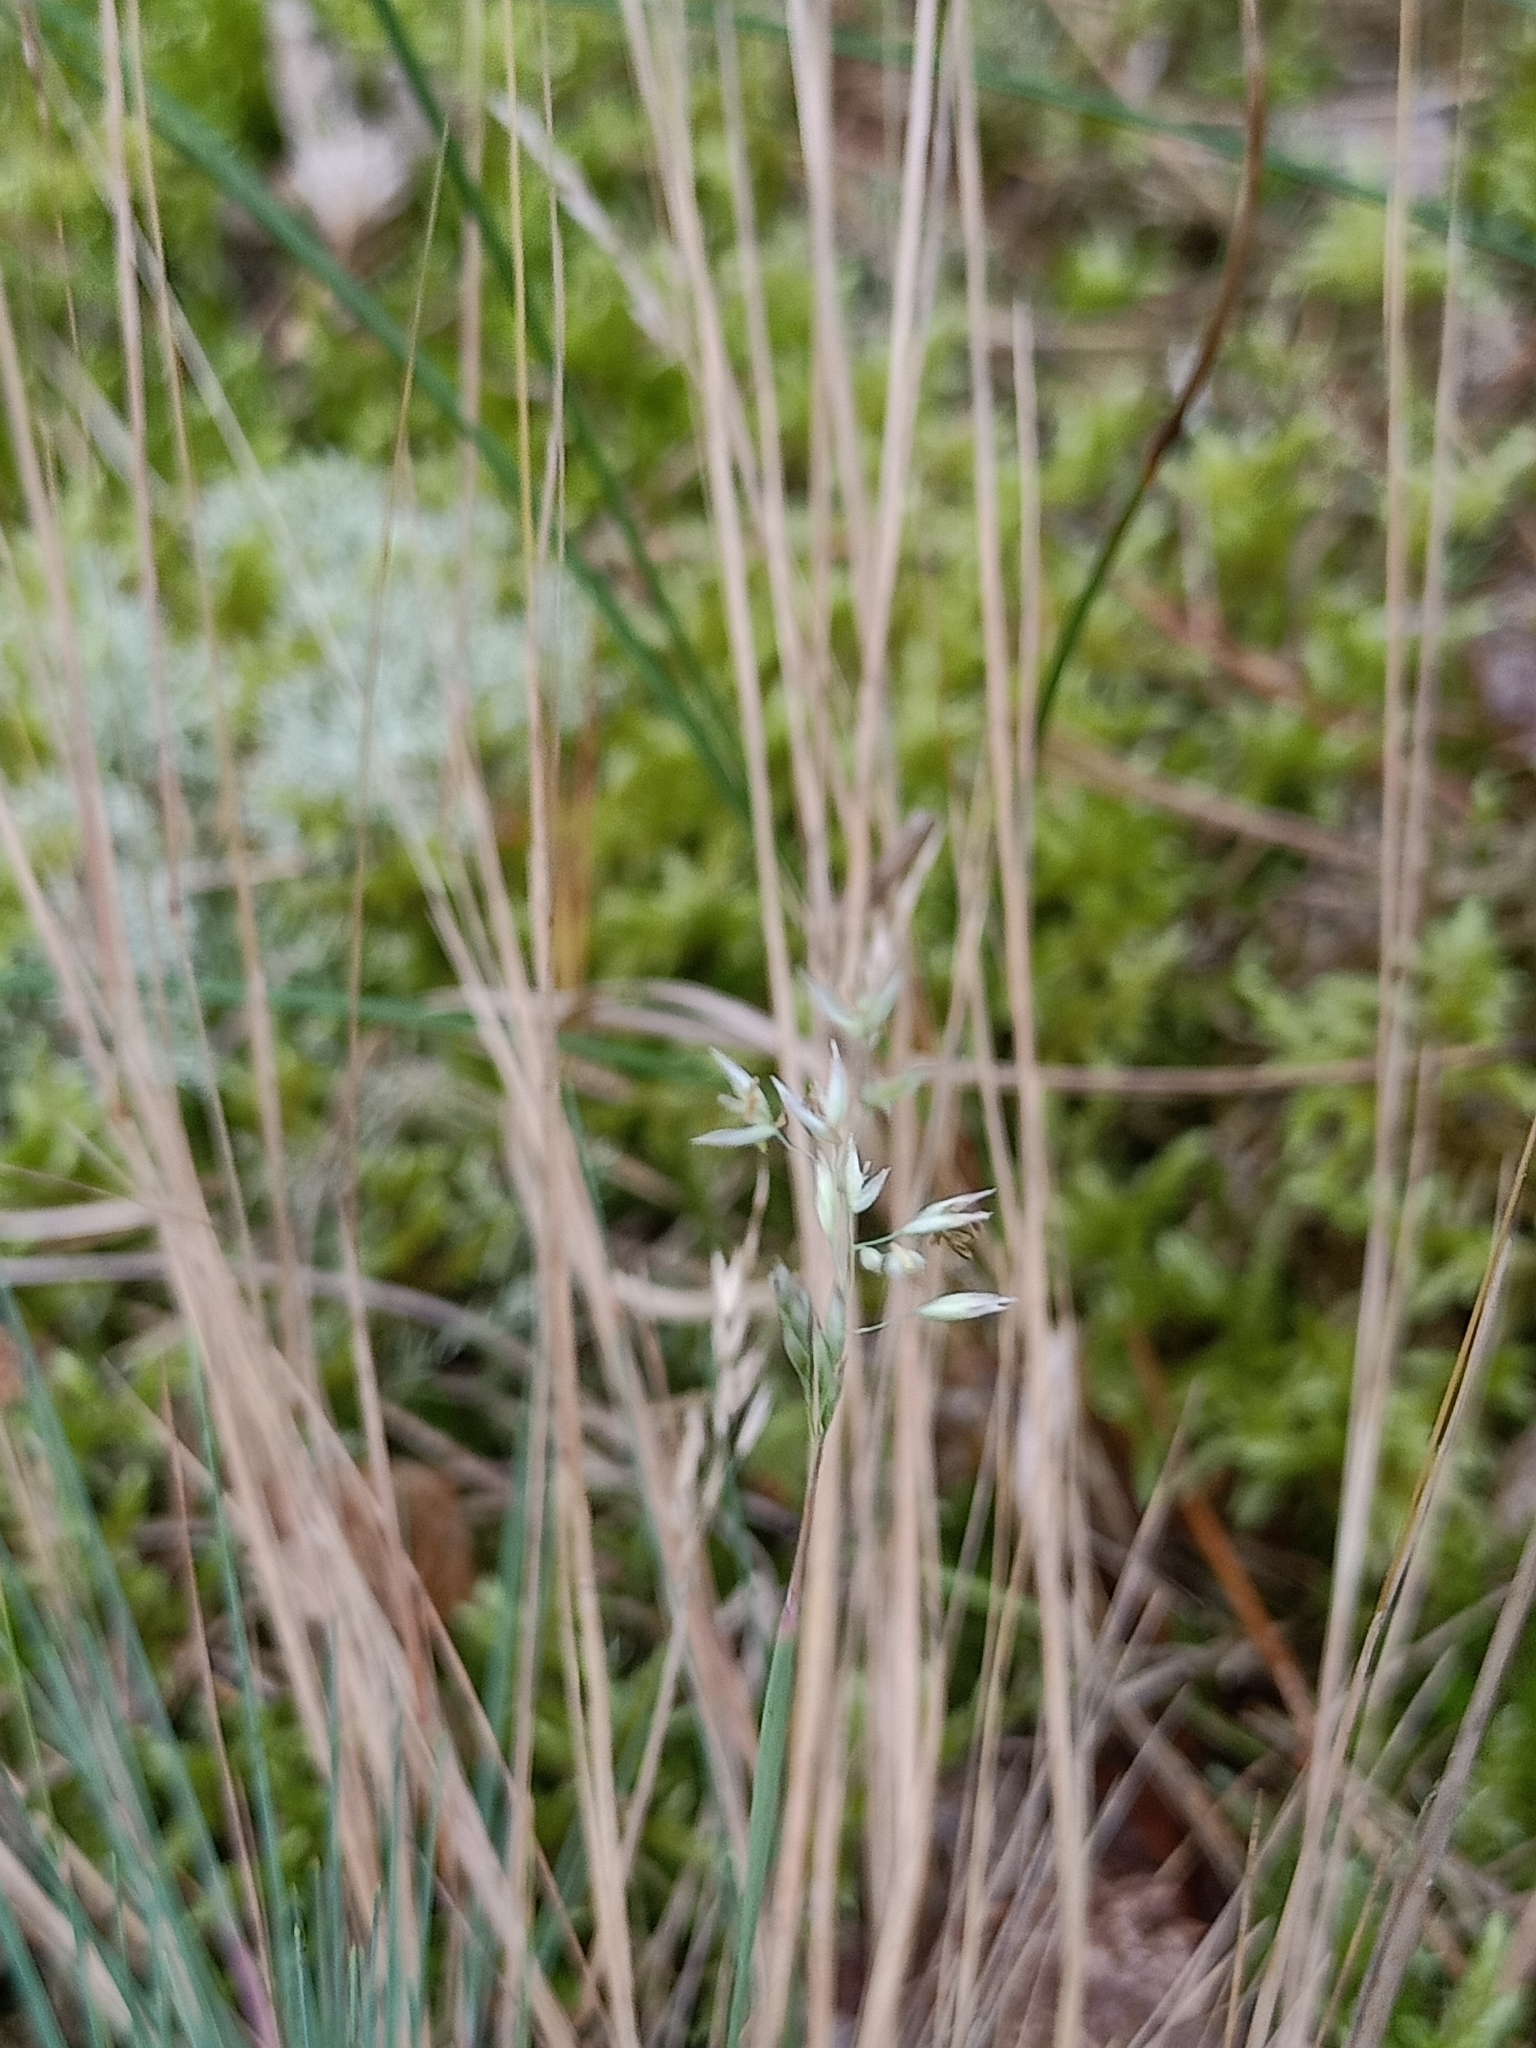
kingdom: Plantae
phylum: Tracheophyta
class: Liliopsida
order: Poales
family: Poaceae
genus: Corynephorus
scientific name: Corynephorus canescens
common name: Grey hair-grass
